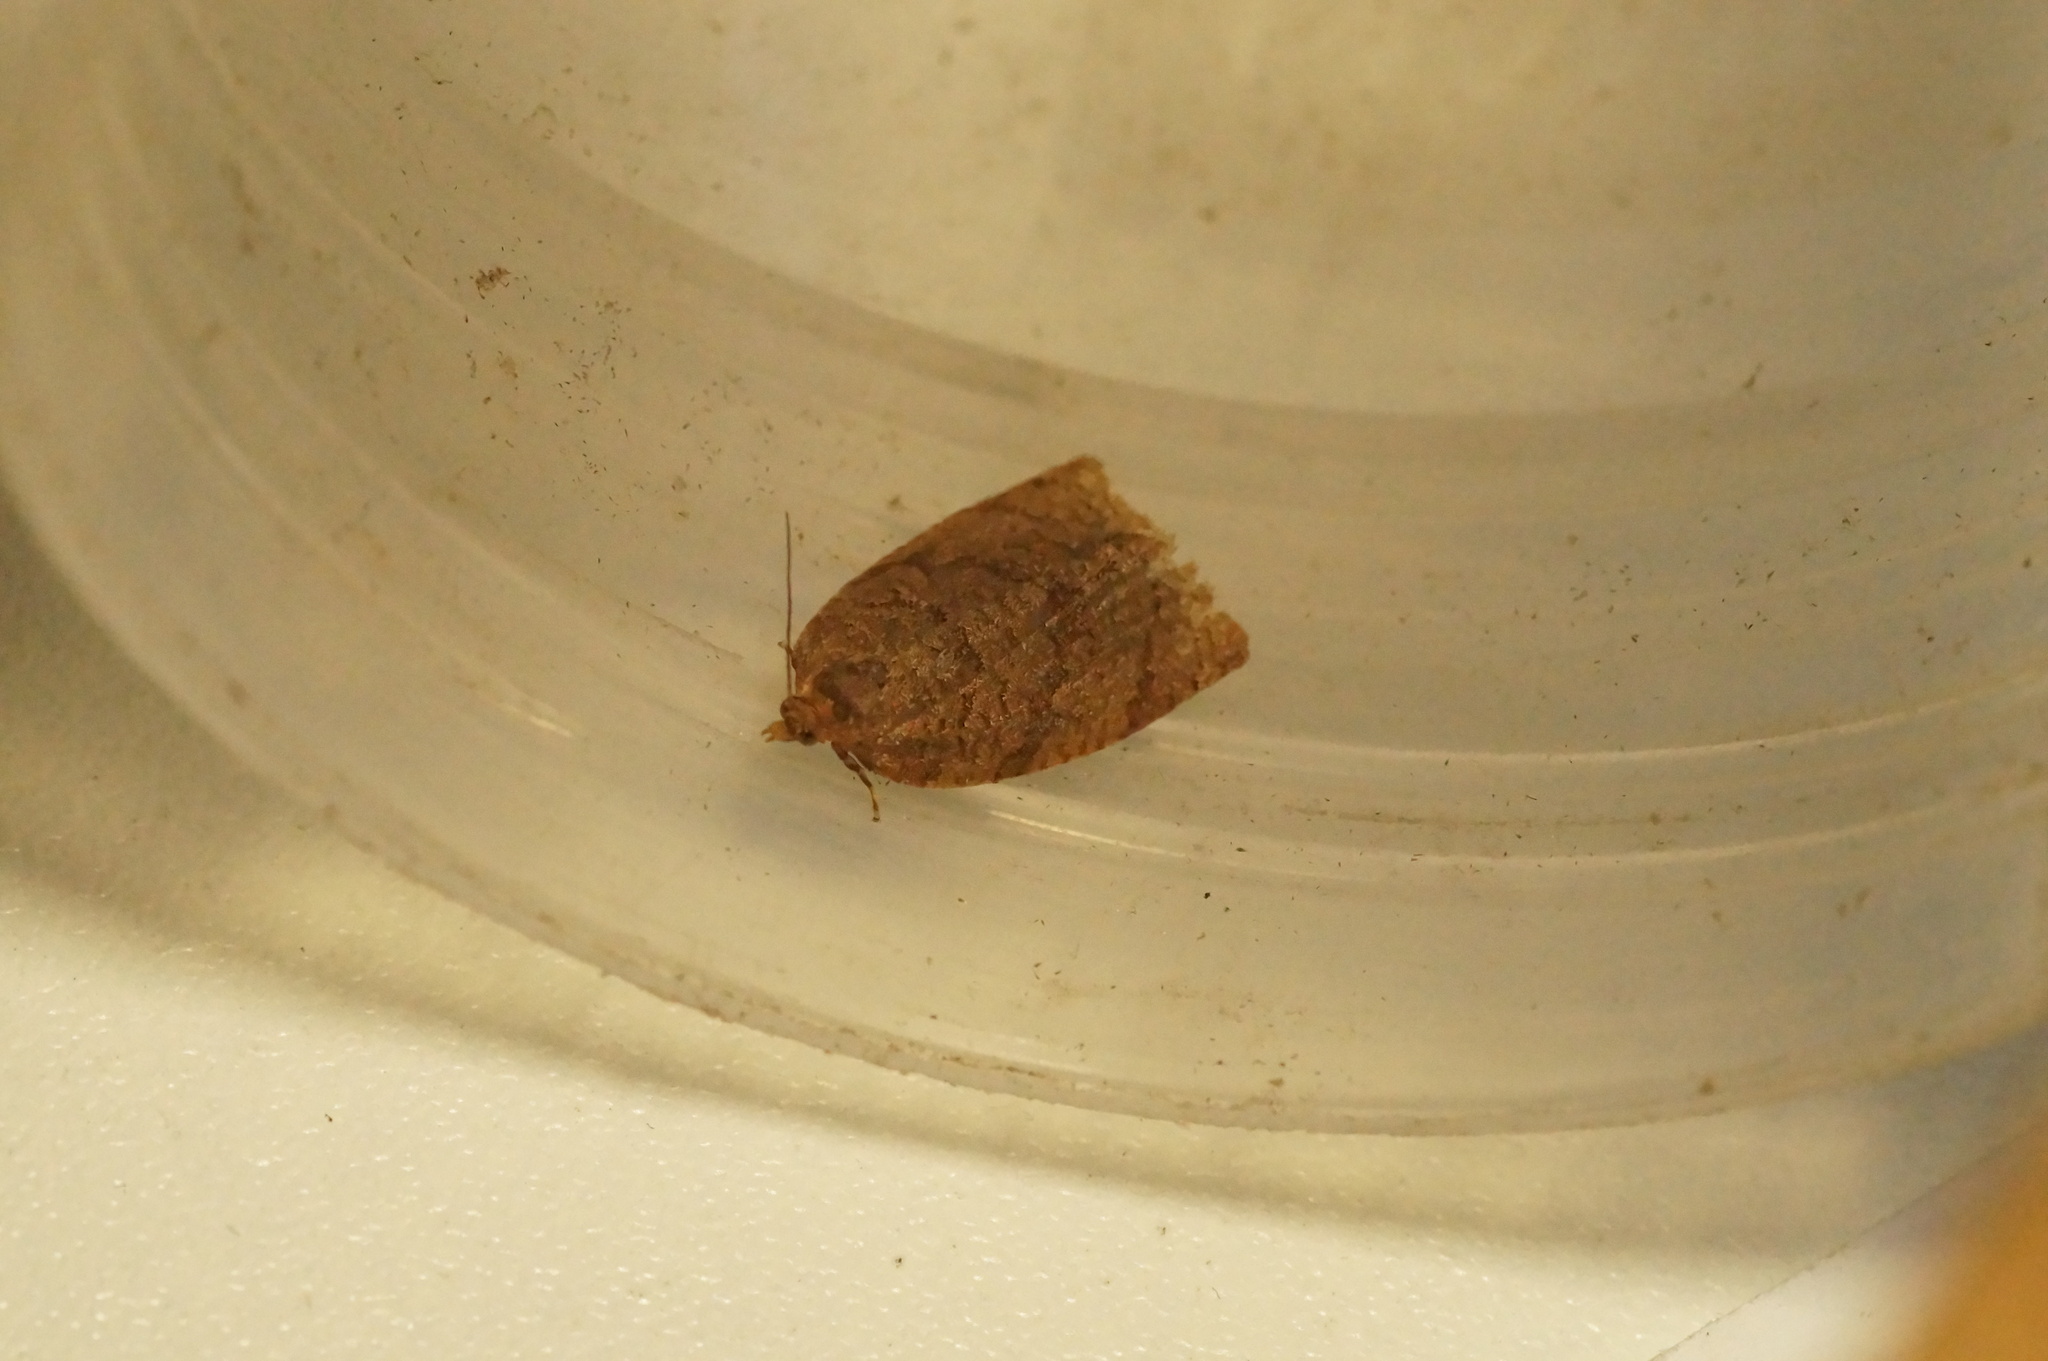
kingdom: Animalia
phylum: Arthropoda
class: Insecta
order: Lepidoptera
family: Tortricidae
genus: Adoxophyes
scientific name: Adoxophyes orana
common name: Summer fruit tortrix
